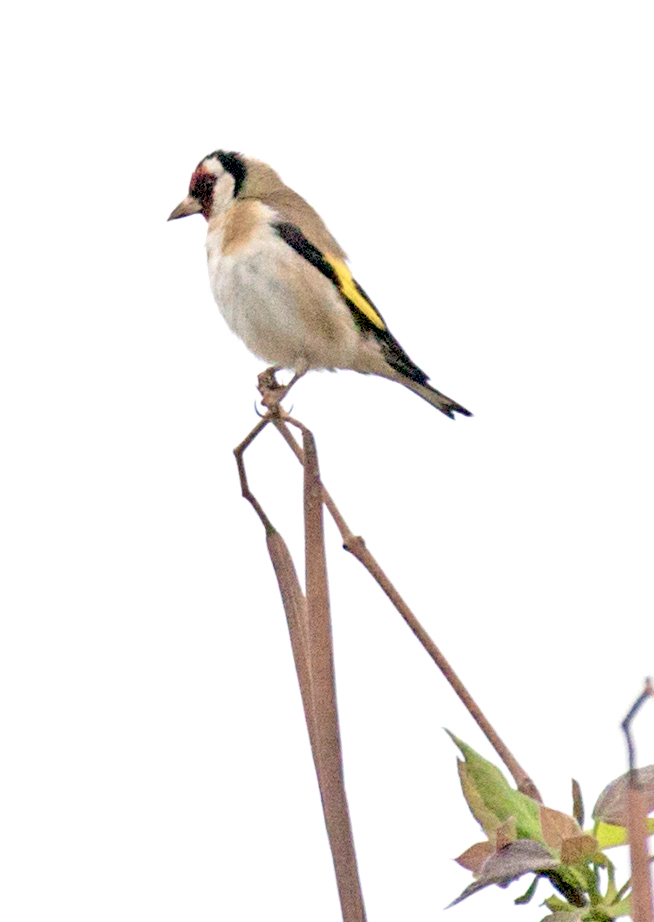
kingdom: Animalia
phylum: Chordata
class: Aves
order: Passeriformes
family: Fringillidae
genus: Carduelis
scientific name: Carduelis carduelis
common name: European goldfinch
